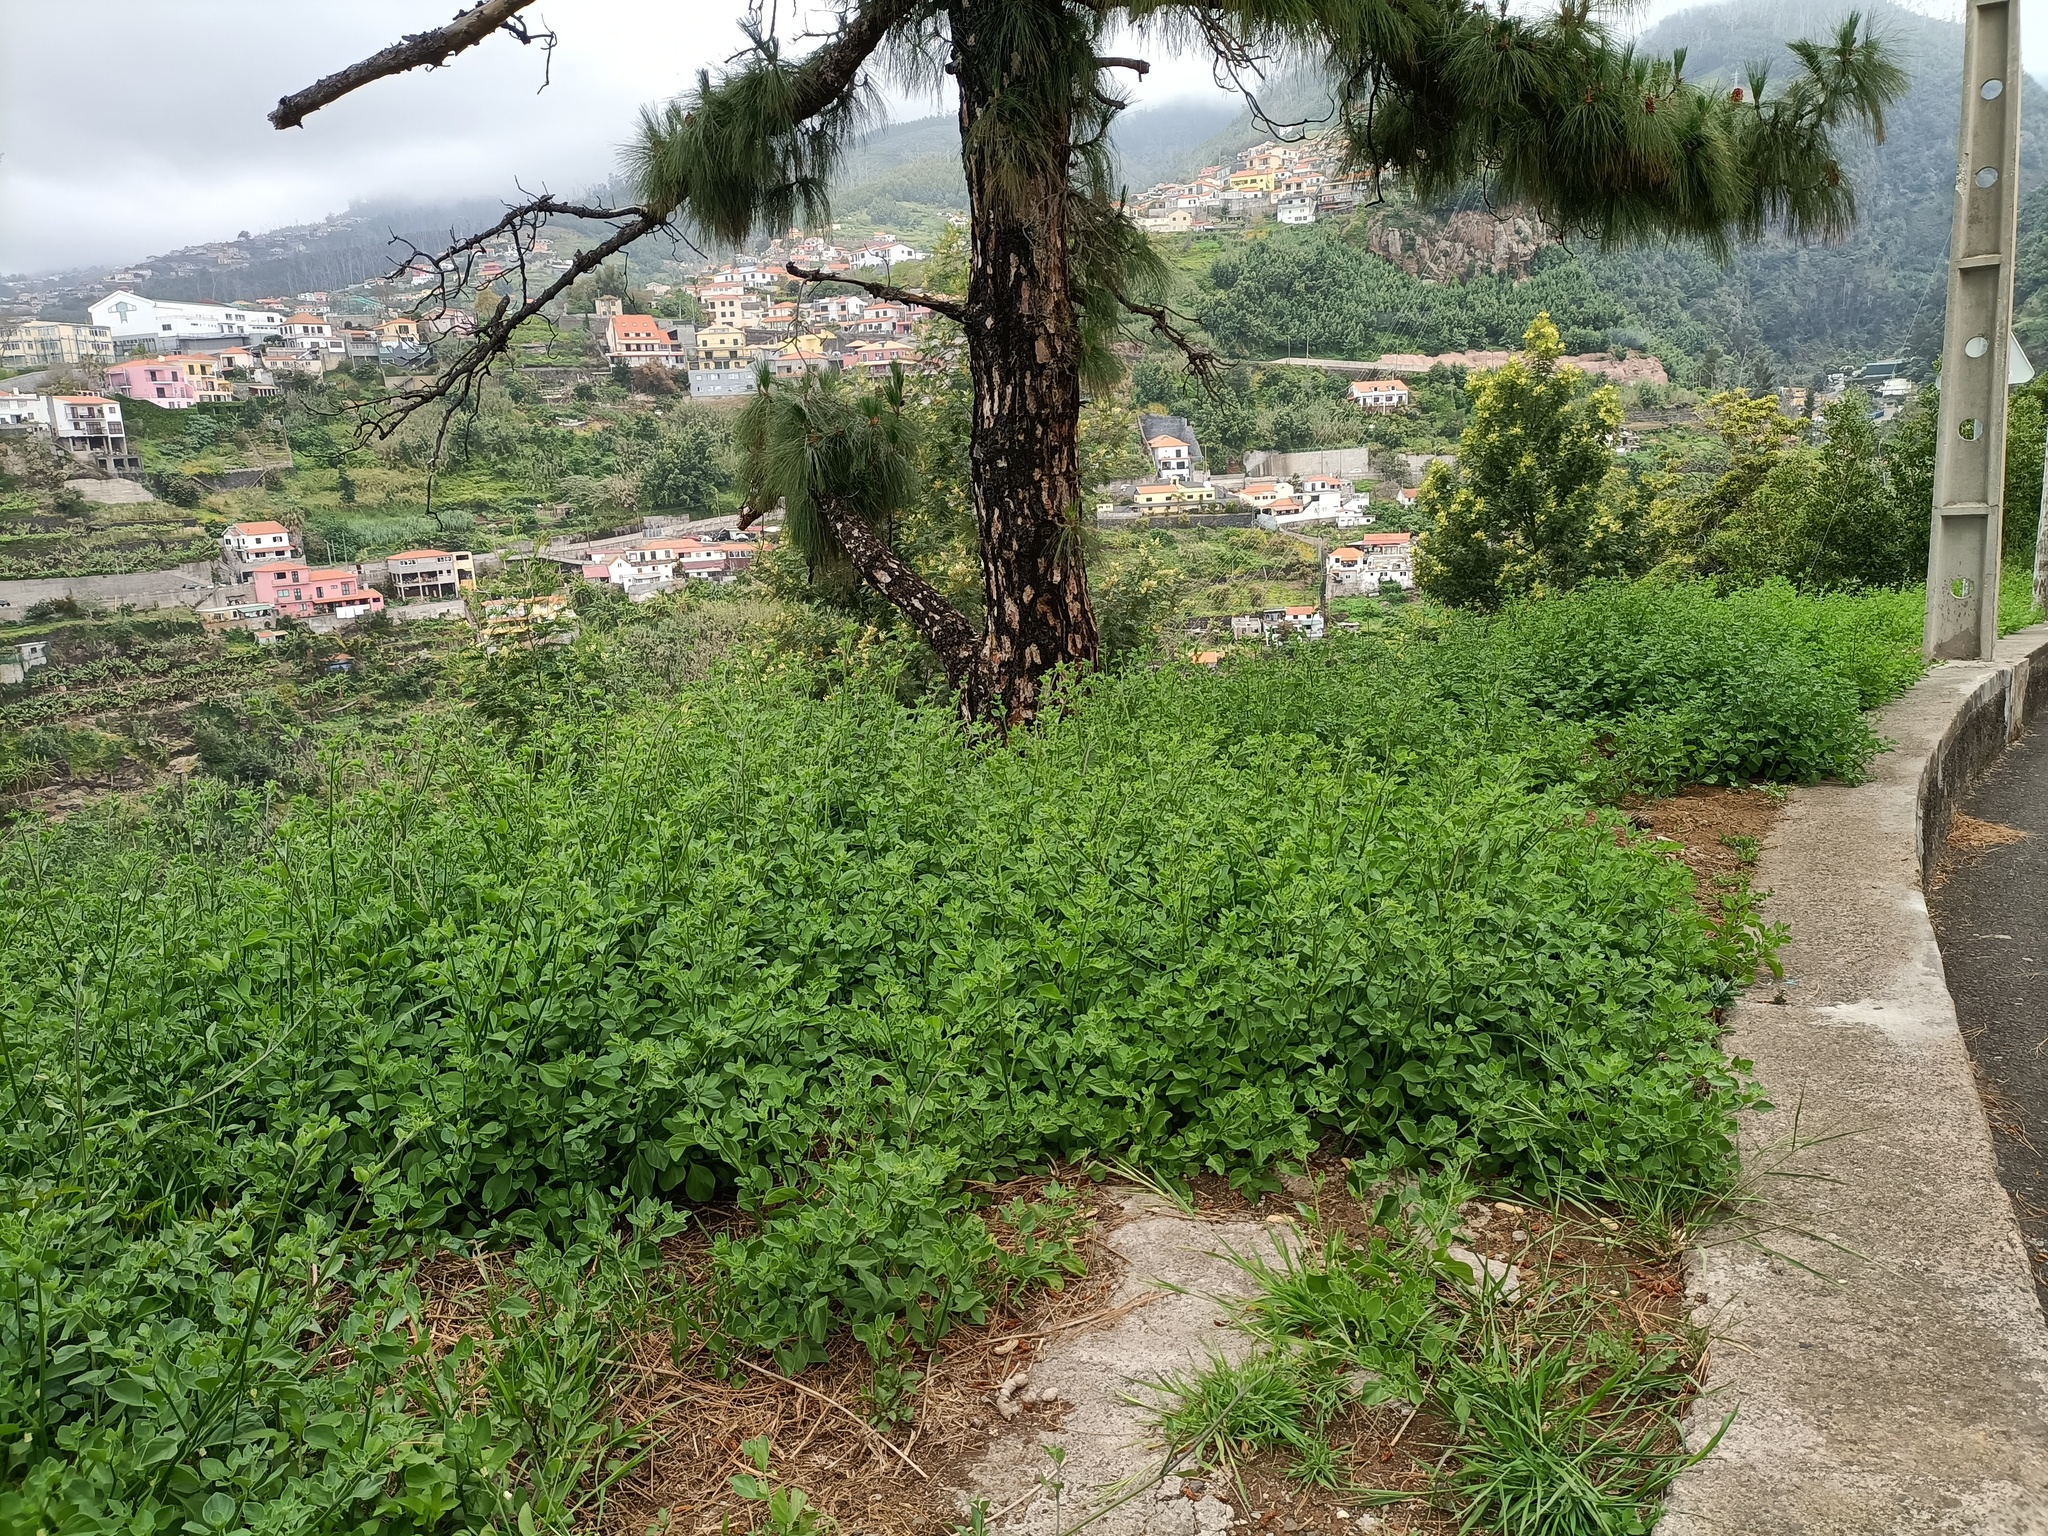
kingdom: Plantae
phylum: Tracheophyta
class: Magnoliopsida
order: Solanales
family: Solanaceae
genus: Salpichroa
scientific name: Salpichroa origanifolia
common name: Lily-of-the-valley-vine
